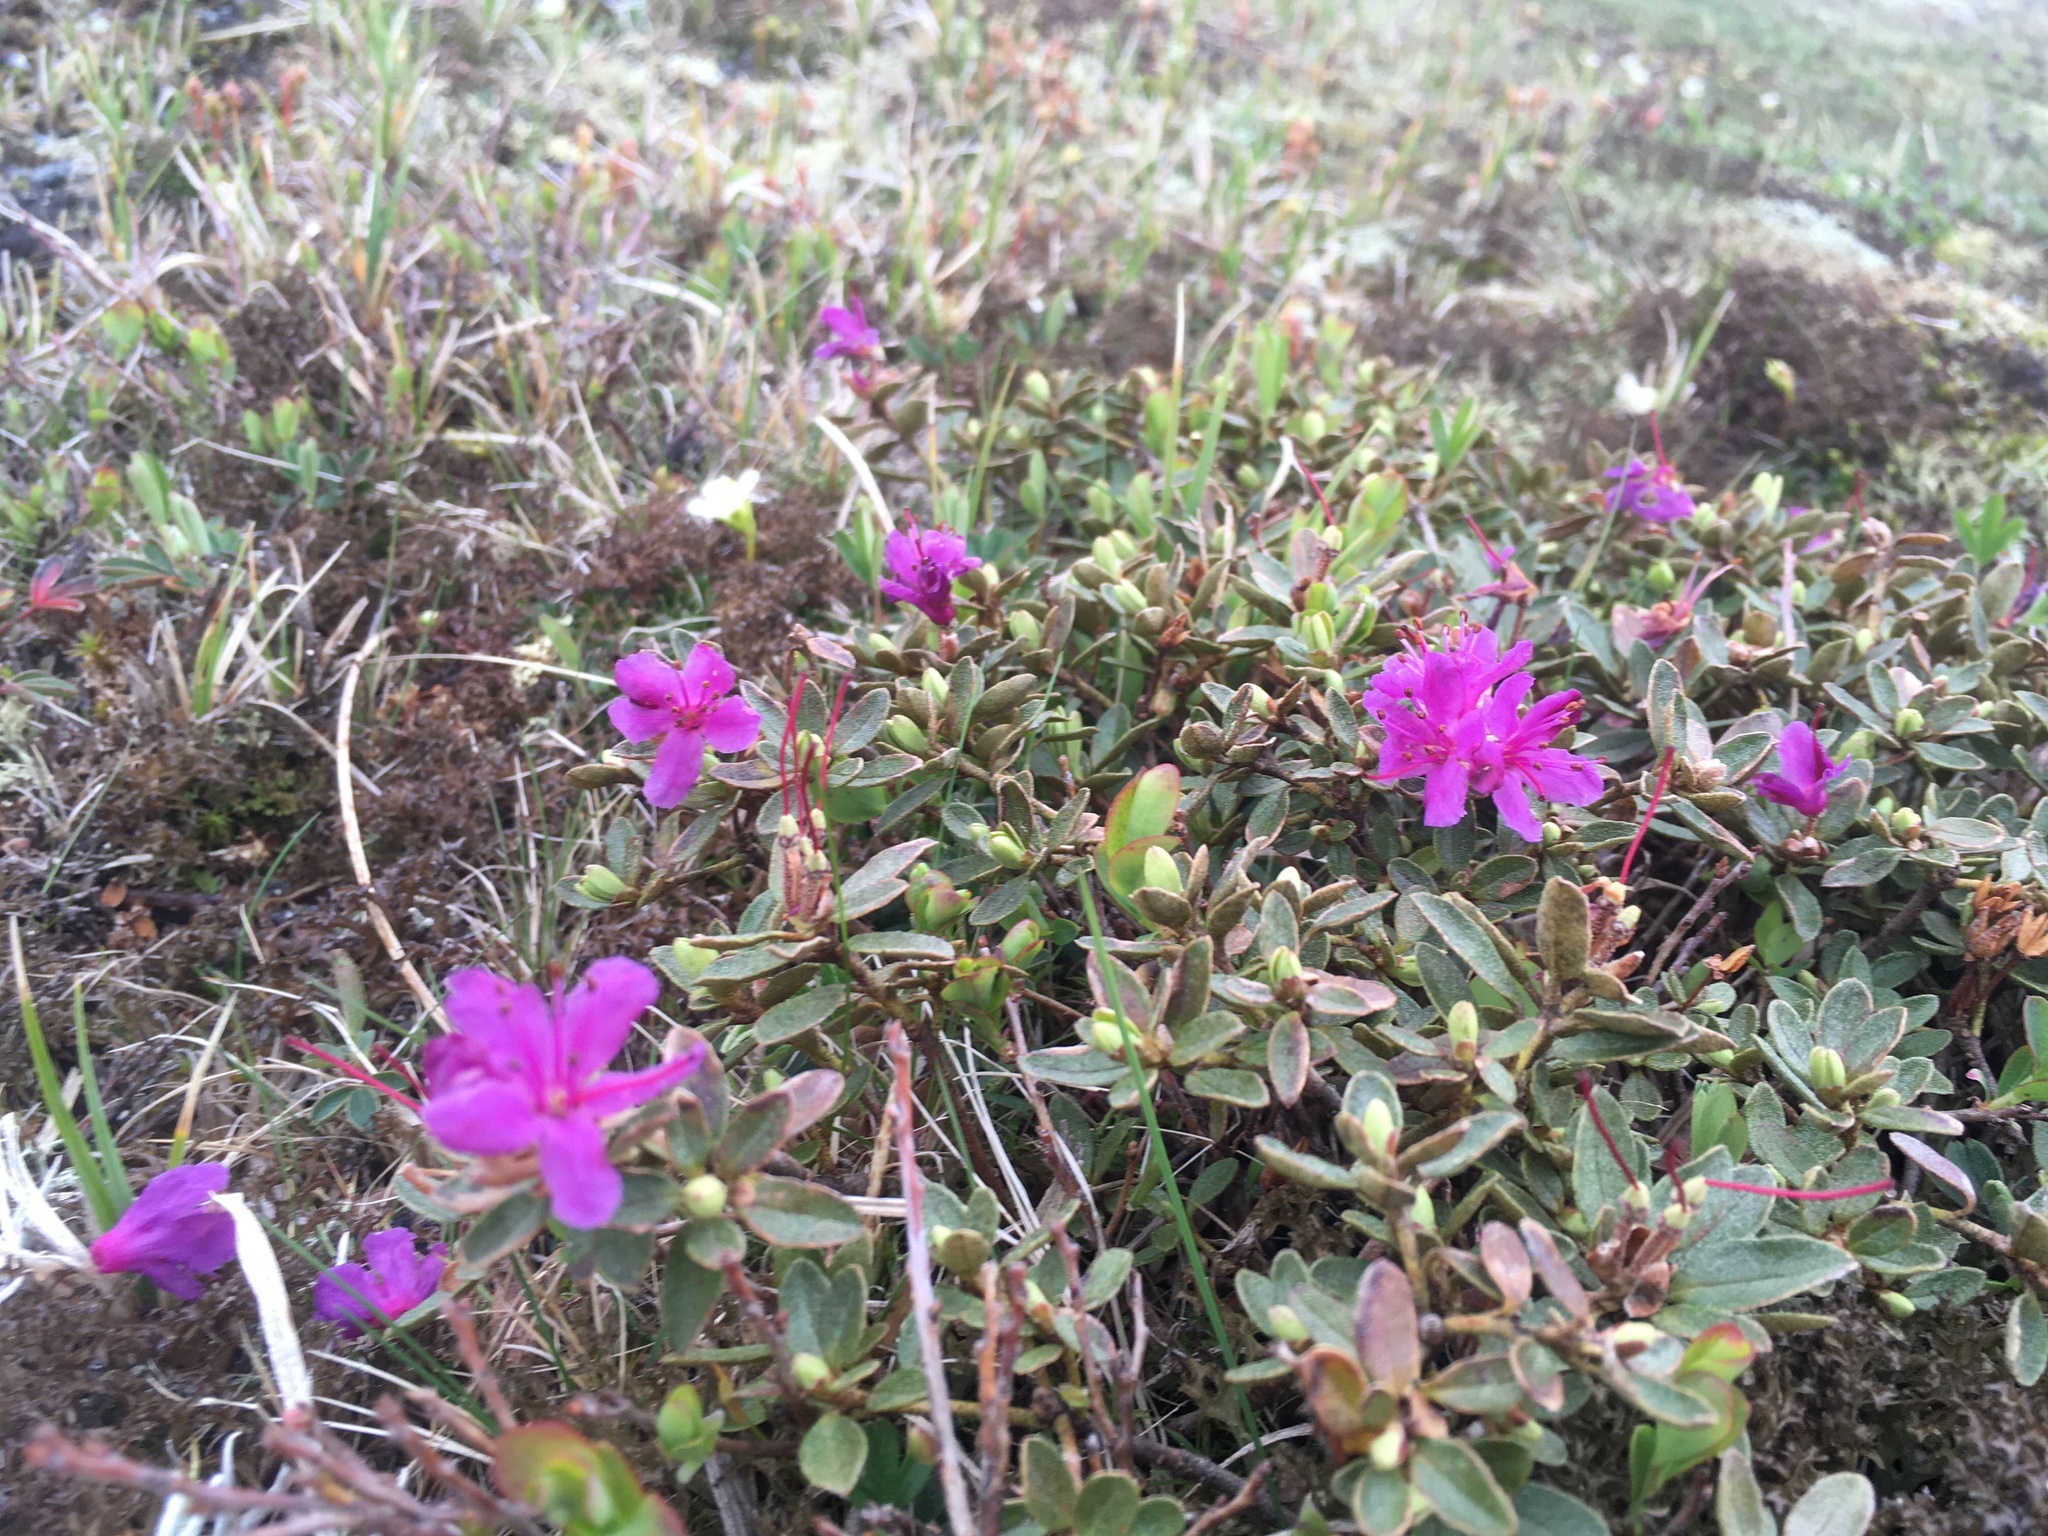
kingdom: Plantae
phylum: Tracheophyta
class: Magnoliopsida
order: Ericales
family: Ericaceae
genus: Rhododendron
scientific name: Rhododendron lapponicum
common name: Lapland rhododendron
